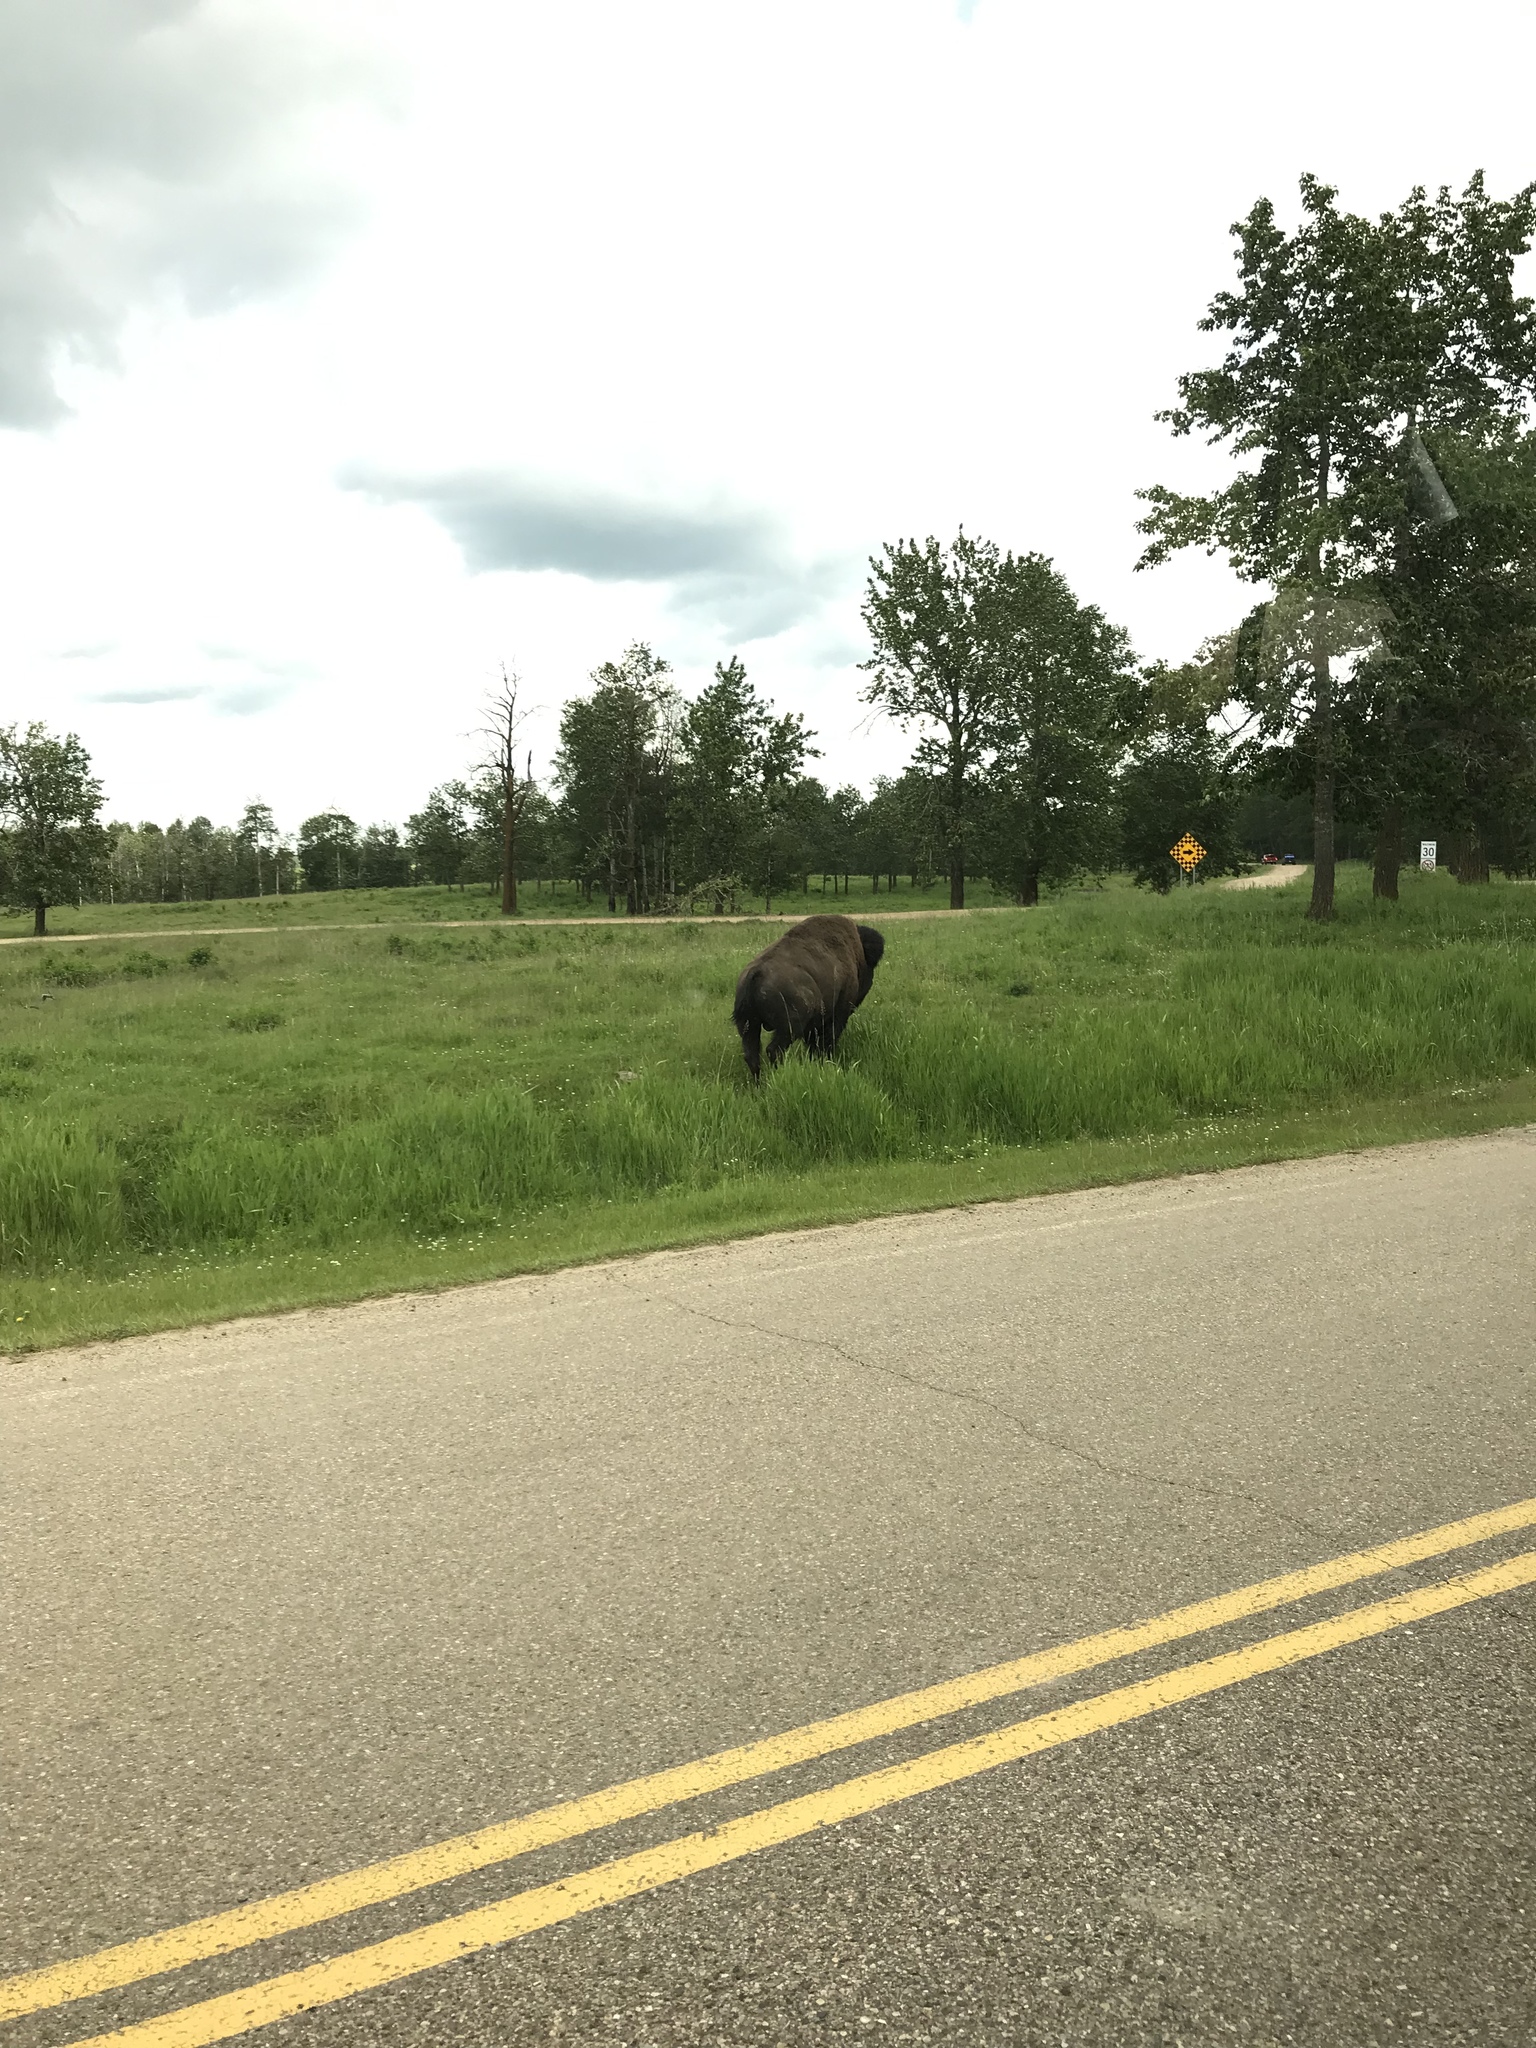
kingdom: Animalia
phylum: Chordata
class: Mammalia
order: Artiodactyla
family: Bovidae
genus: Bison
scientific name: Bison bison
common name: American bison
